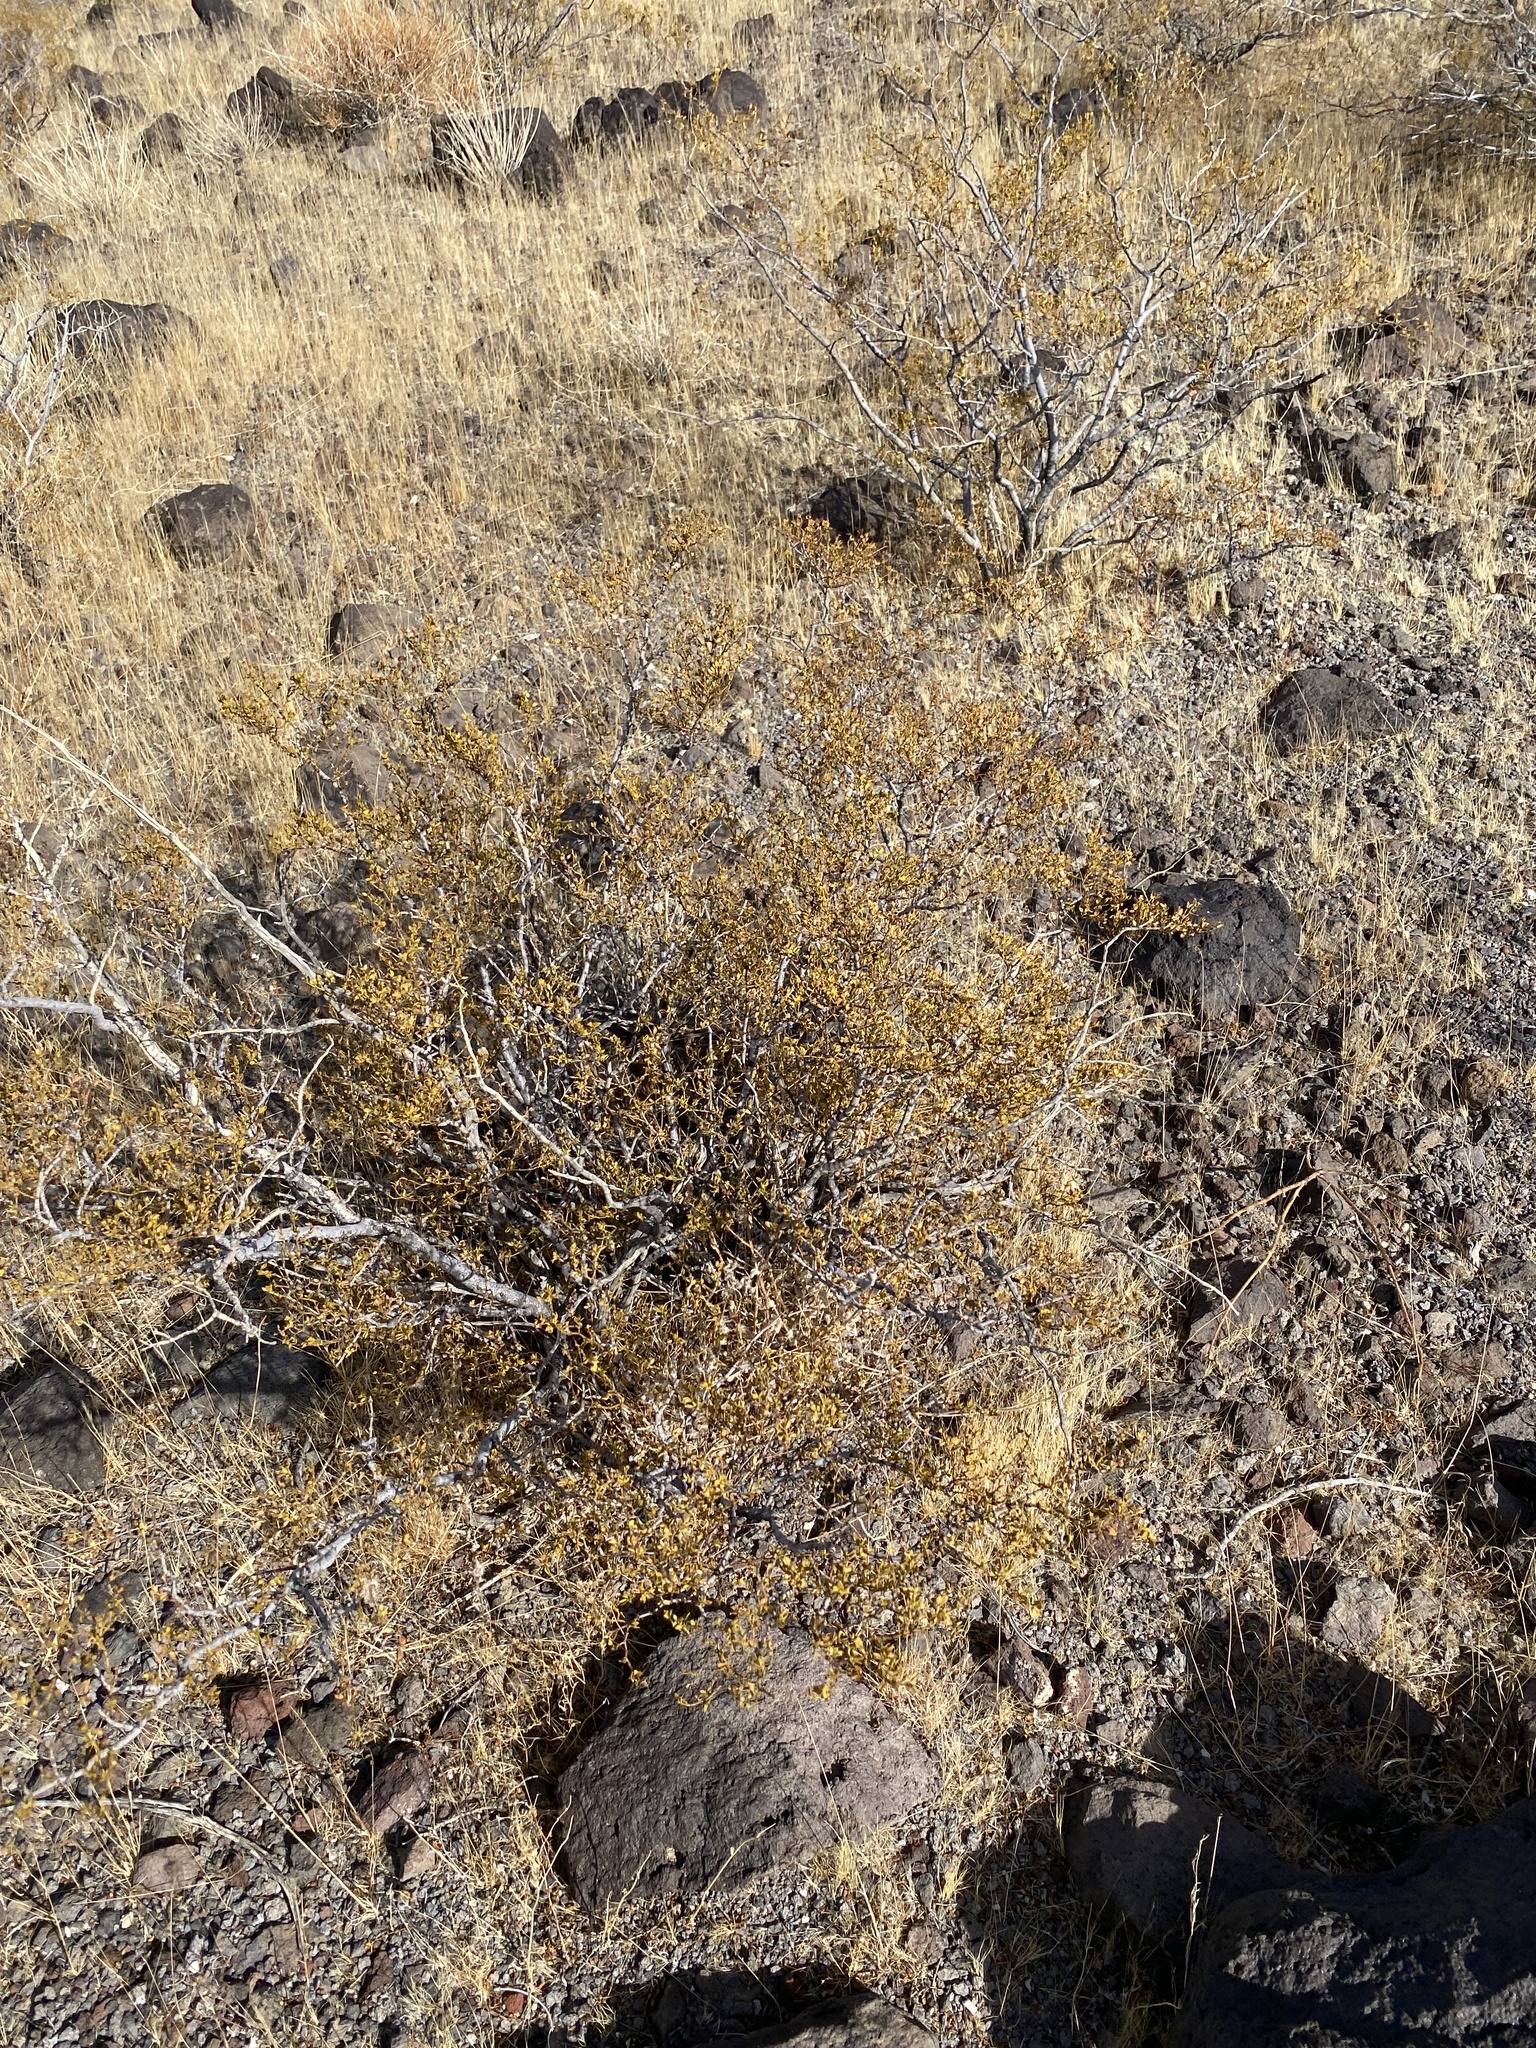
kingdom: Plantae
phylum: Tracheophyta
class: Magnoliopsida
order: Zygophyllales
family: Zygophyllaceae
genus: Larrea
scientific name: Larrea tridentata
